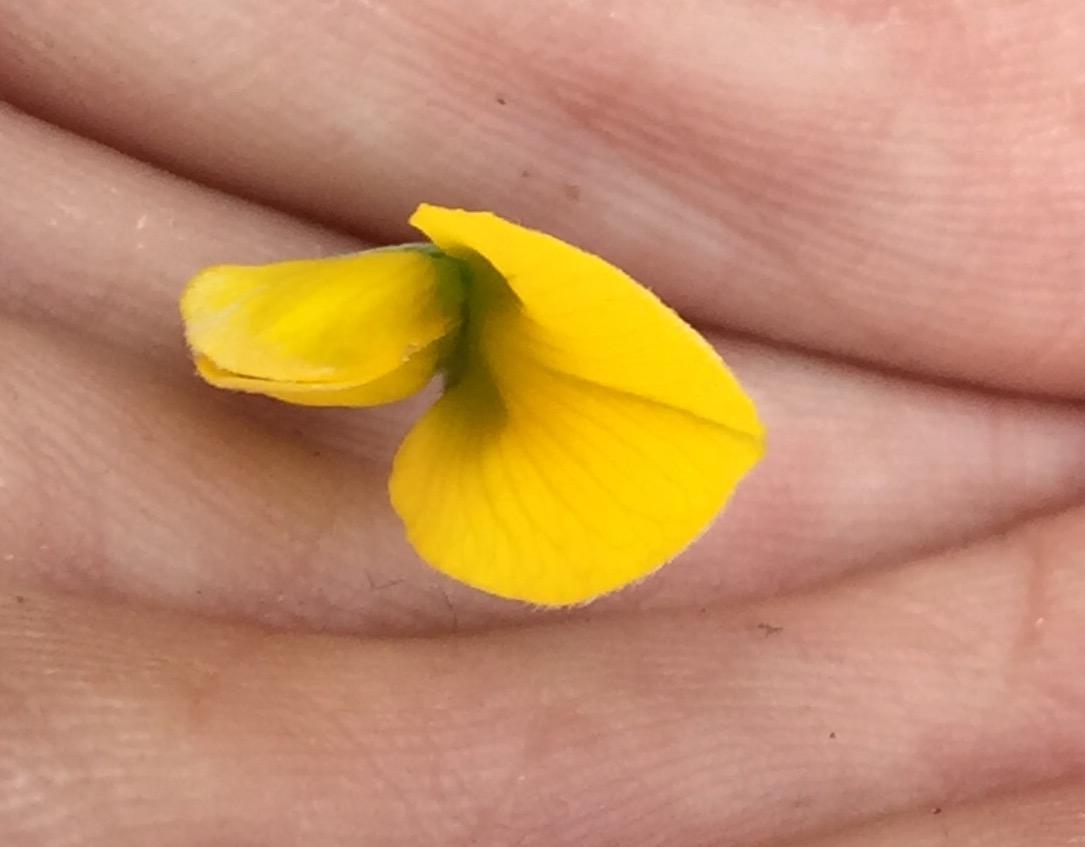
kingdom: Plantae
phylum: Tracheophyta
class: Magnoliopsida
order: Fabales
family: Fabaceae
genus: Argyrolobium
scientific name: Argyrolobium rarum
